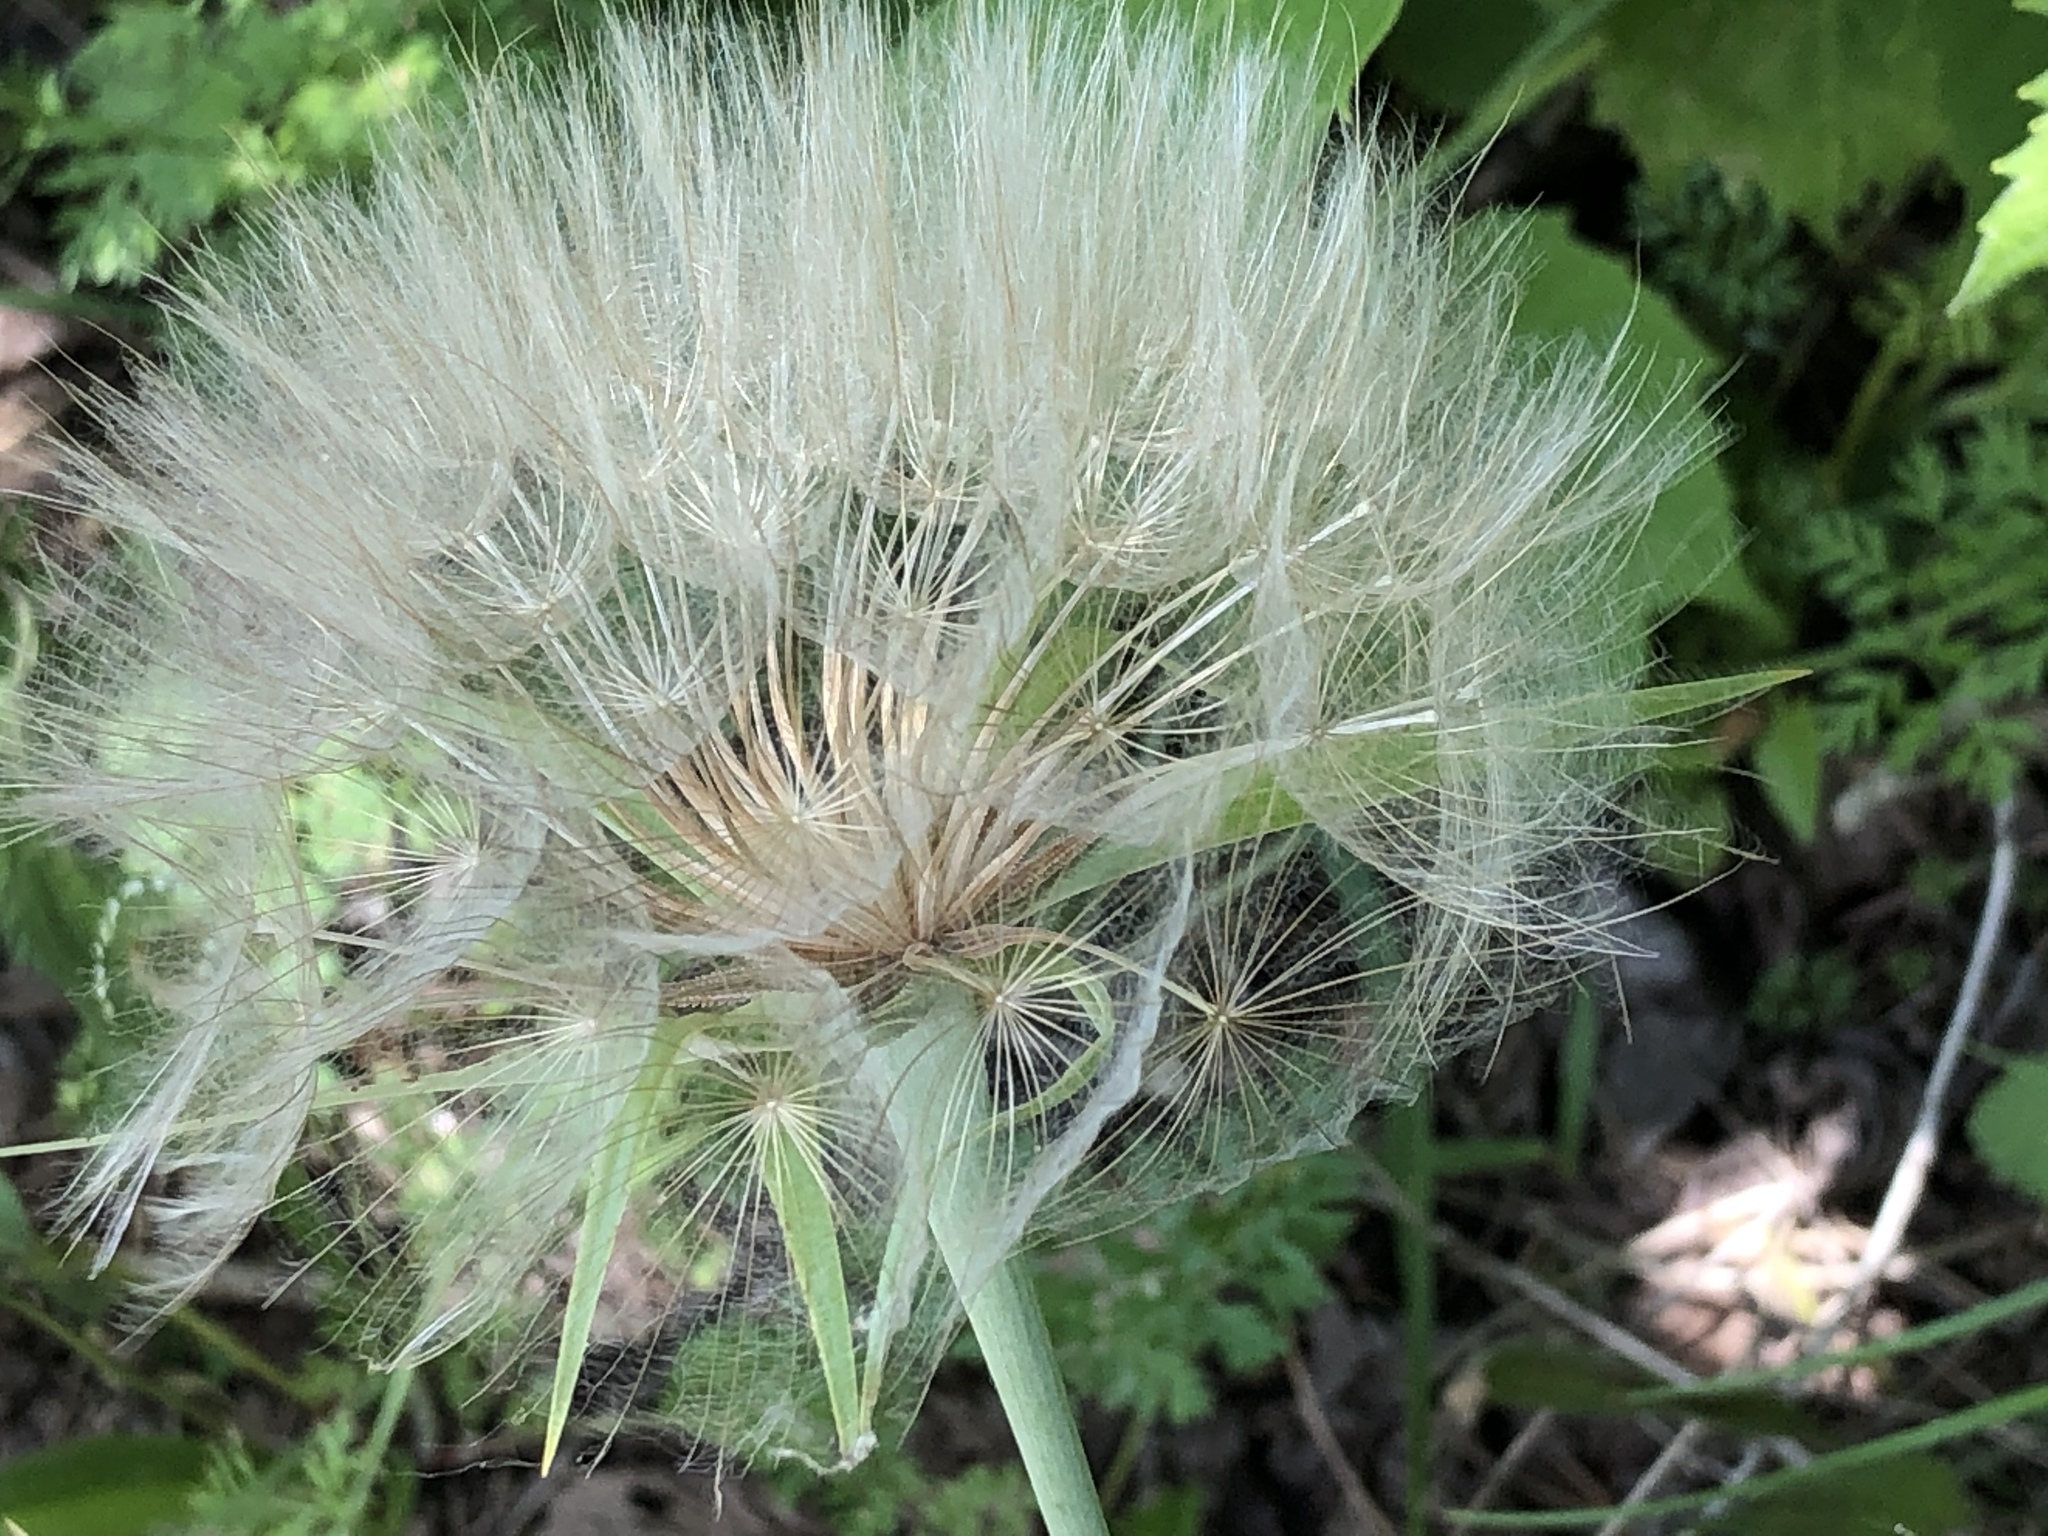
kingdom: Plantae
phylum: Tracheophyta
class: Magnoliopsida
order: Asterales
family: Asteraceae
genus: Tragopogon
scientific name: Tragopogon dubius
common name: Yellow salsify
